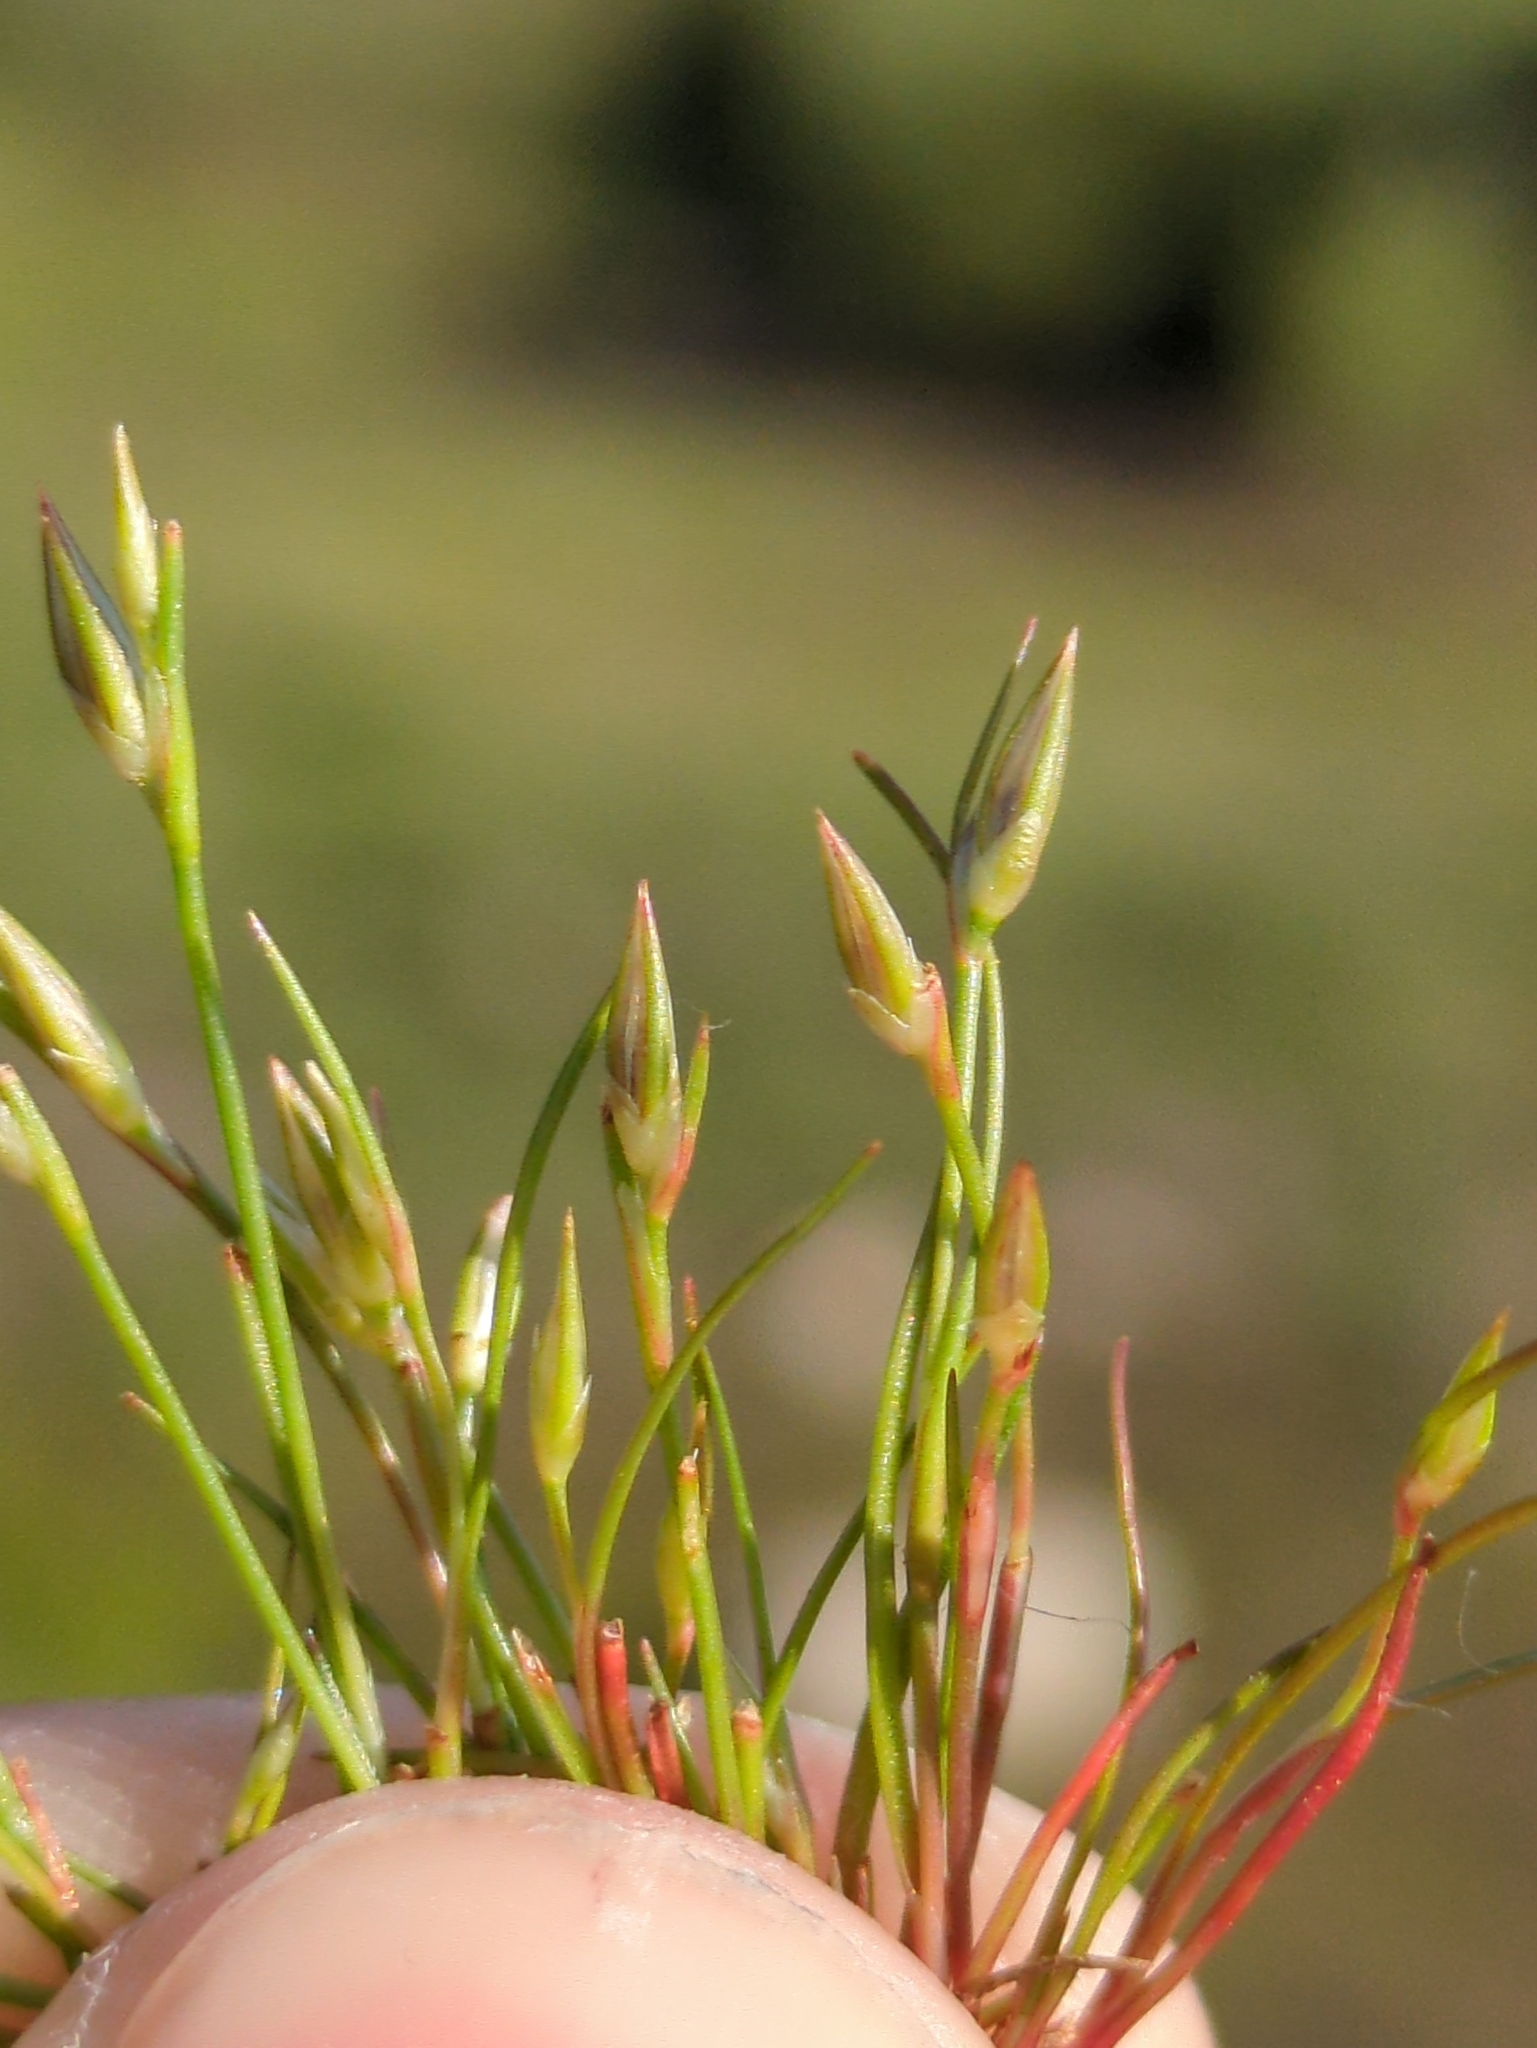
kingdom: Plantae
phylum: Tracheophyta
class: Liliopsida
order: Poales
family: Juncaceae
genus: Juncus
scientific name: Juncus bufonius
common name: Toad rush
